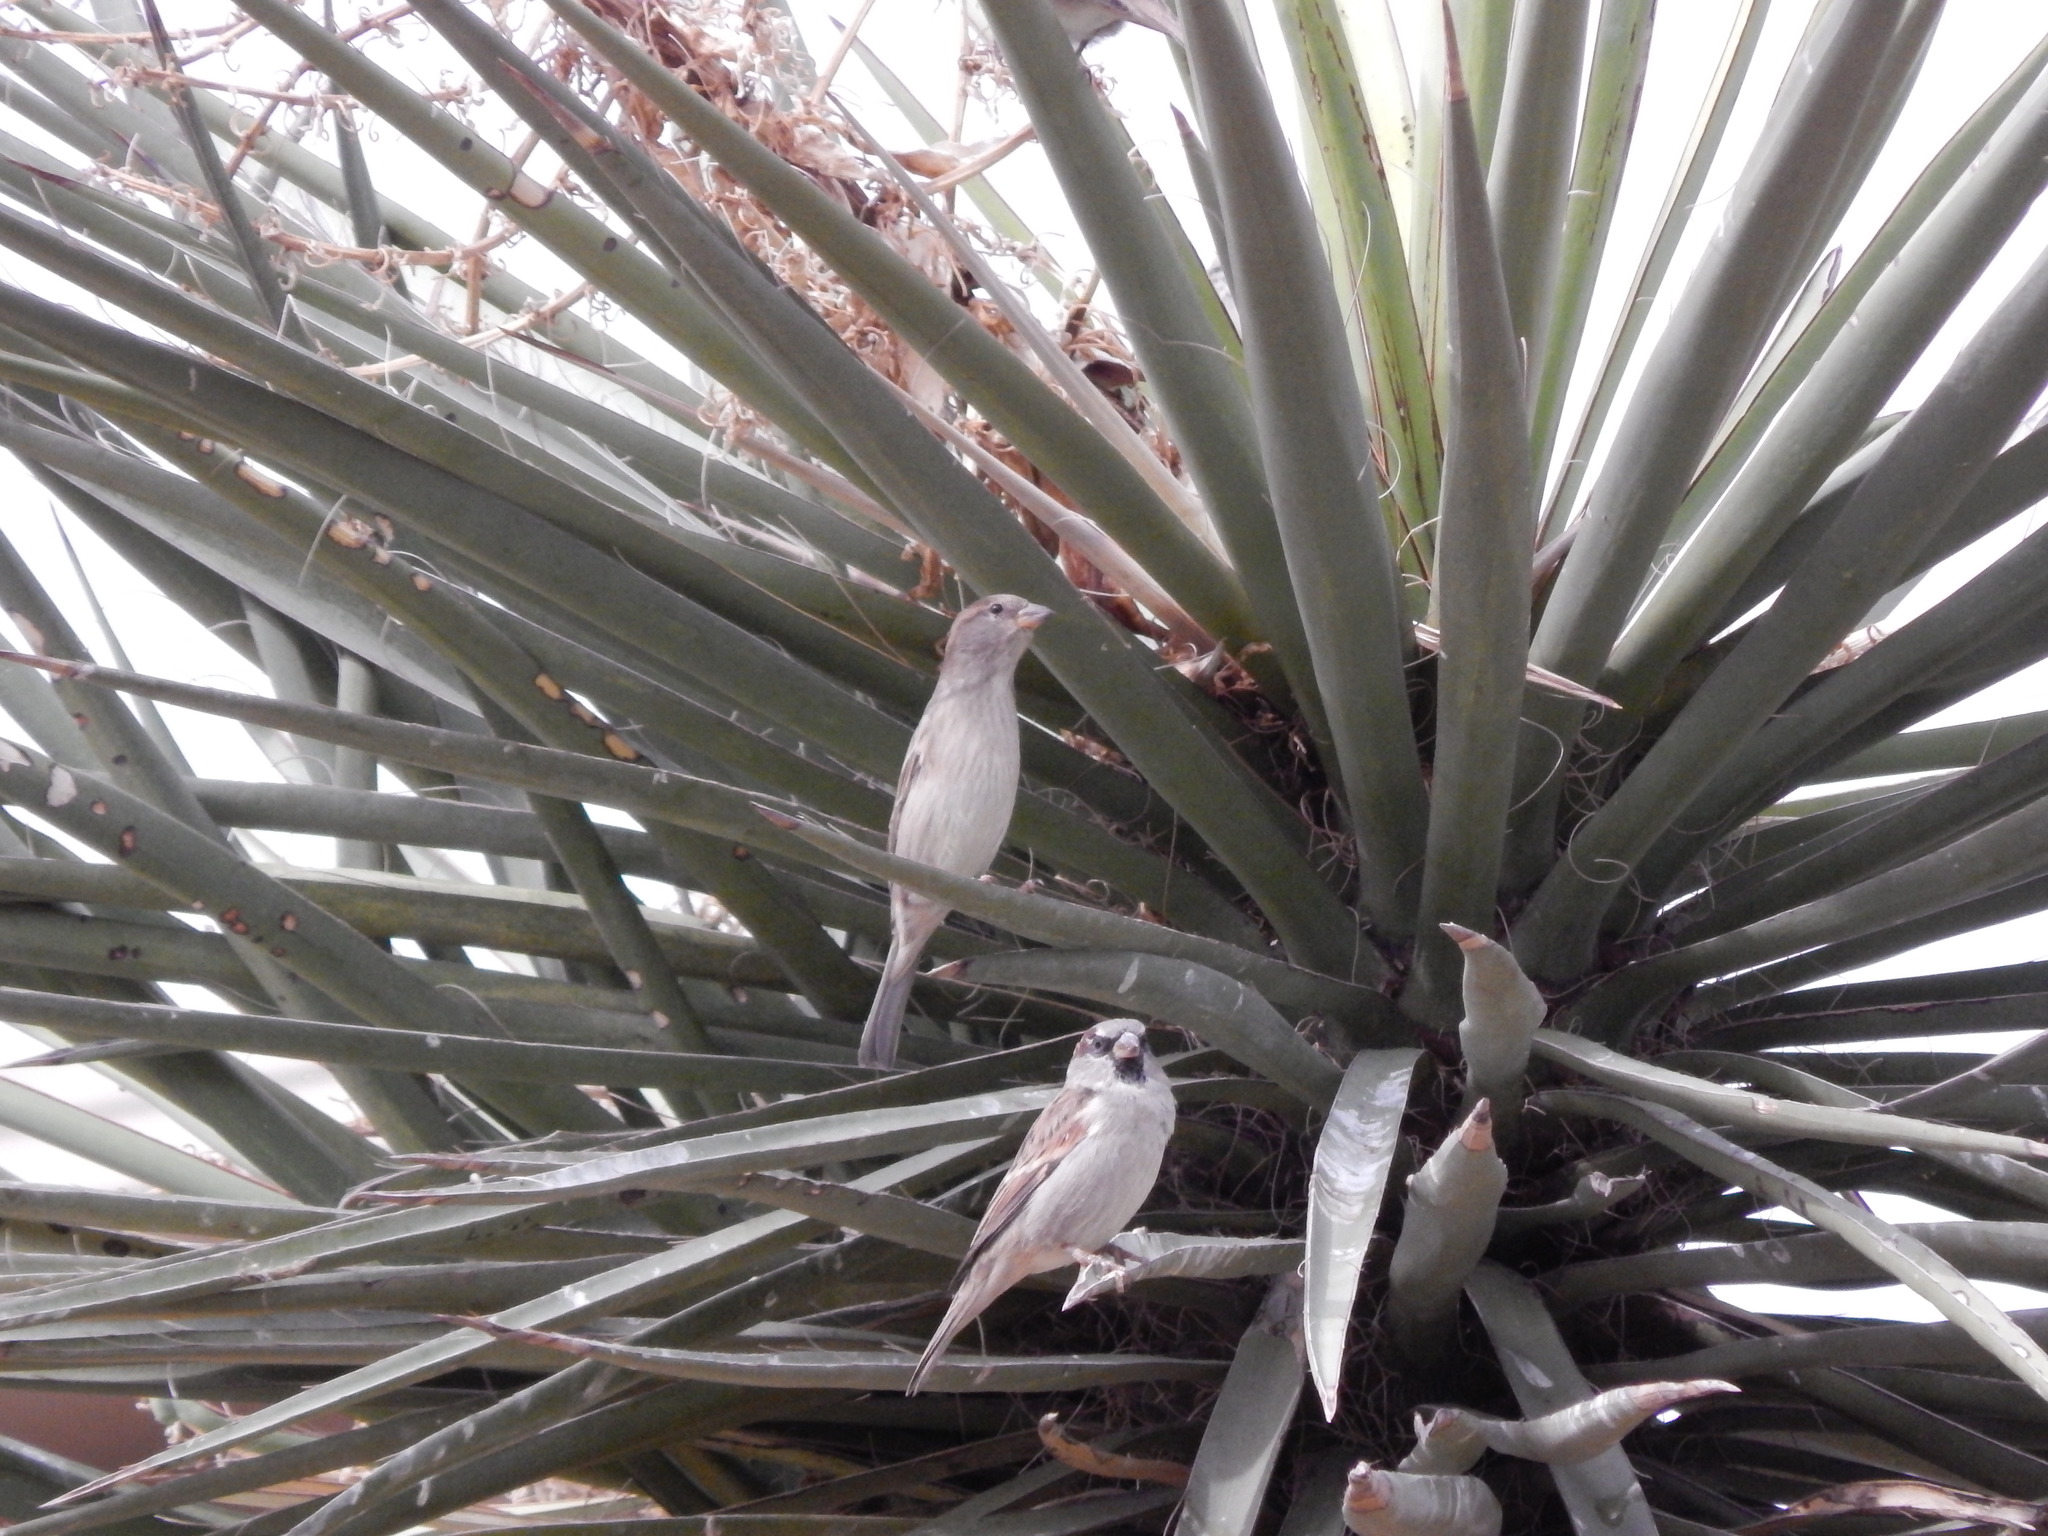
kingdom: Animalia
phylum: Chordata
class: Aves
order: Passeriformes
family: Passeridae
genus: Passer
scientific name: Passer domesticus
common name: House sparrow
